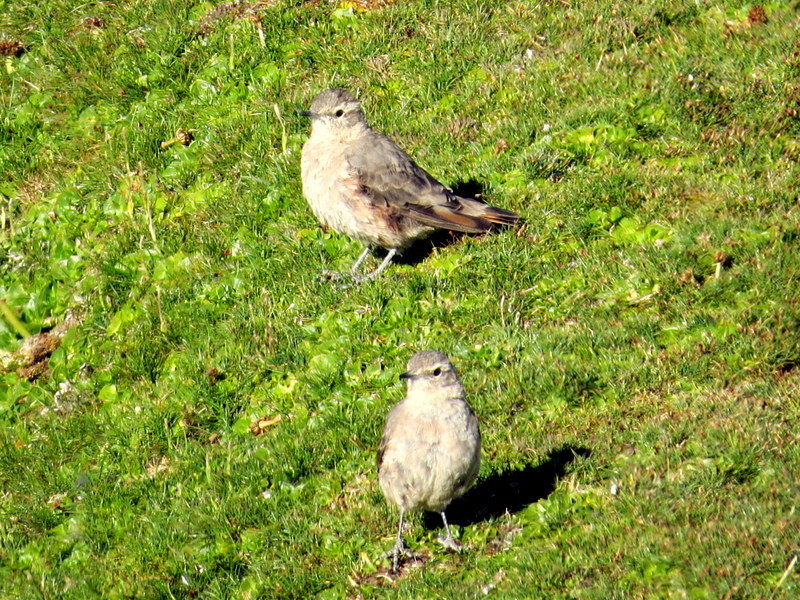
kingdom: Animalia
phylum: Chordata
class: Aves
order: Passeriformes
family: Furnariidae
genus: Geositta
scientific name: Geositta rufipennis
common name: Rufous-banded miner
